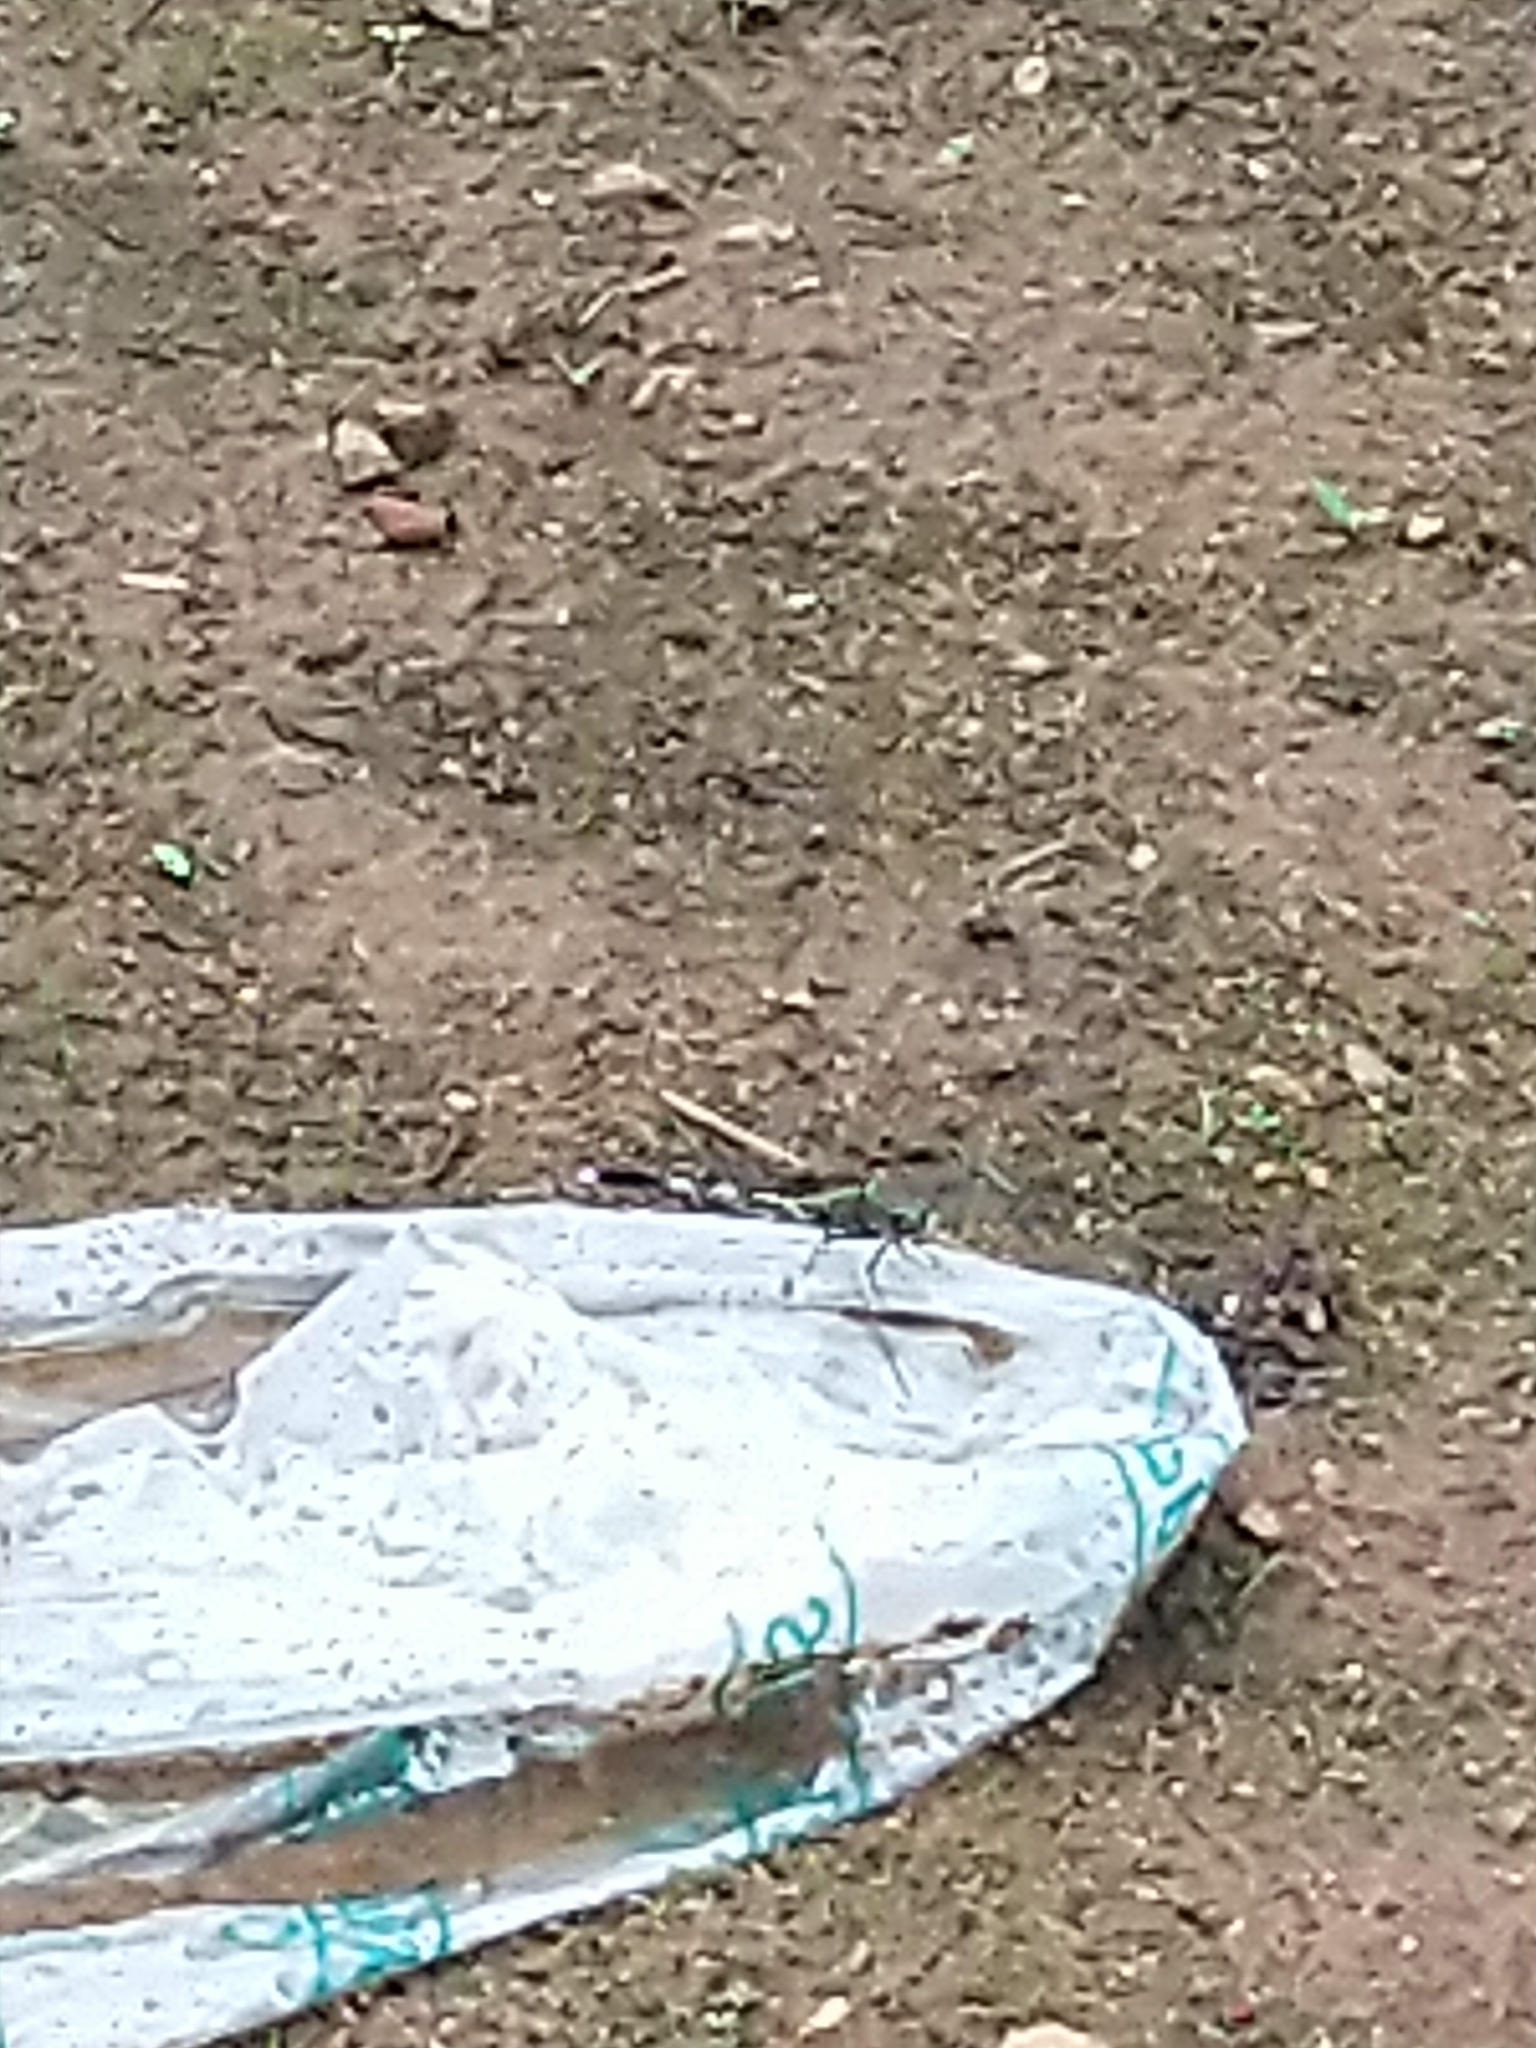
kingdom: Animalia
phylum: Arthropoda
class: Insecta
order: Odonata
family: Libellulidae
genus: Orthetrum
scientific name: Orthetrum sabina
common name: Slender skimmer
